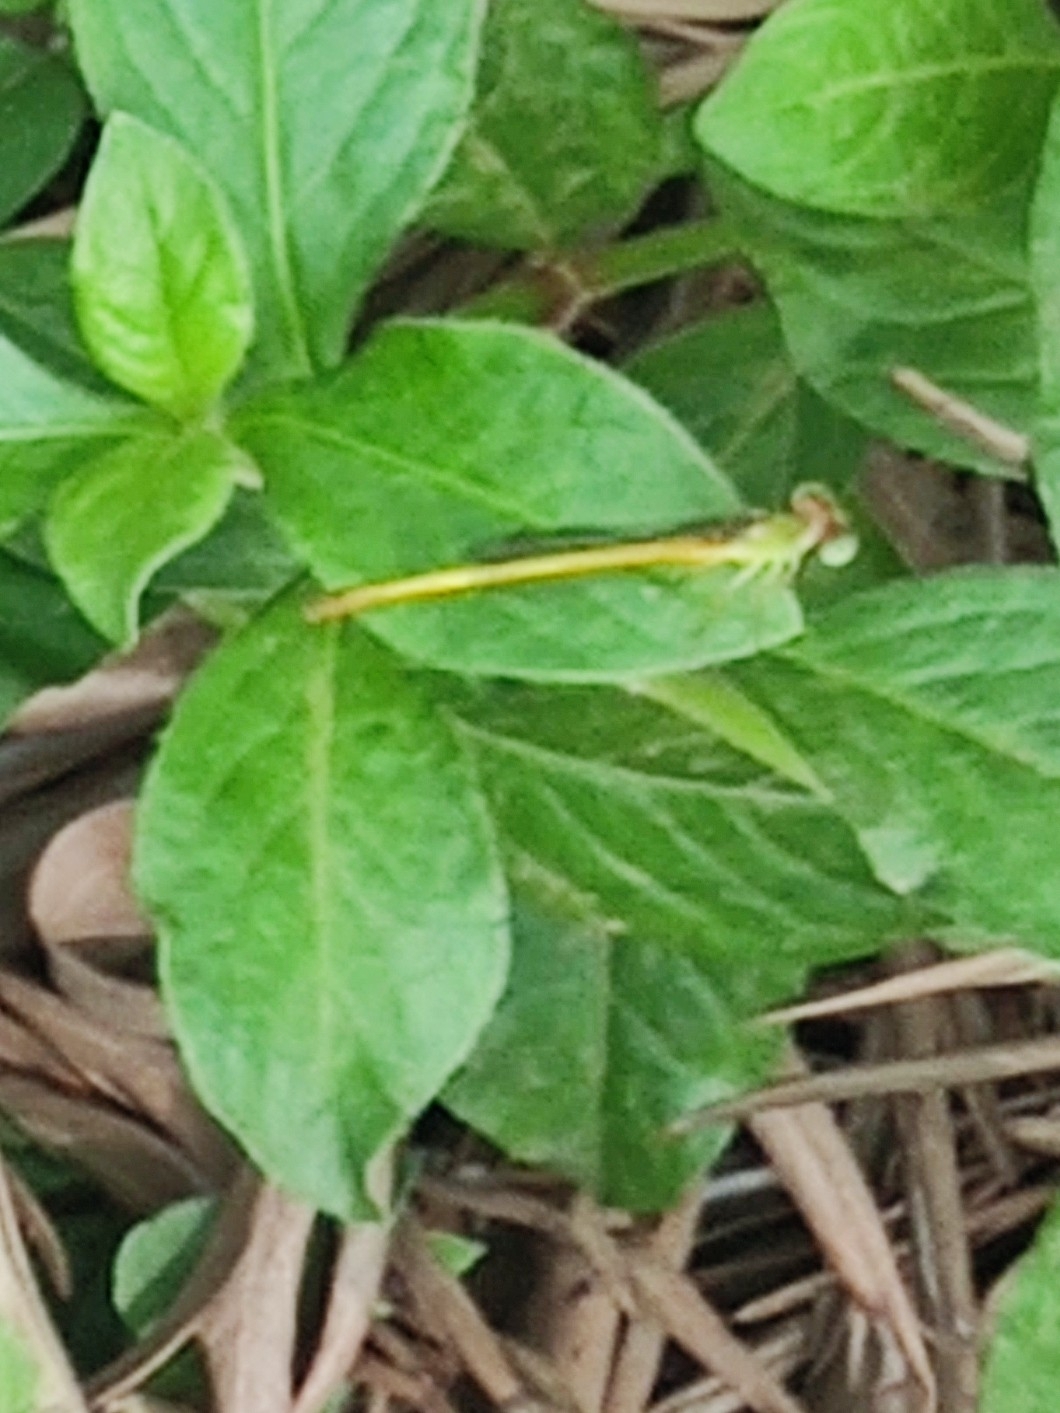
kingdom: Animalia
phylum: Arthropoda
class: Insecta
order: Odonata
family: Coenagrionidae
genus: Ceriagrion
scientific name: Ceriagrion coromandelianum
